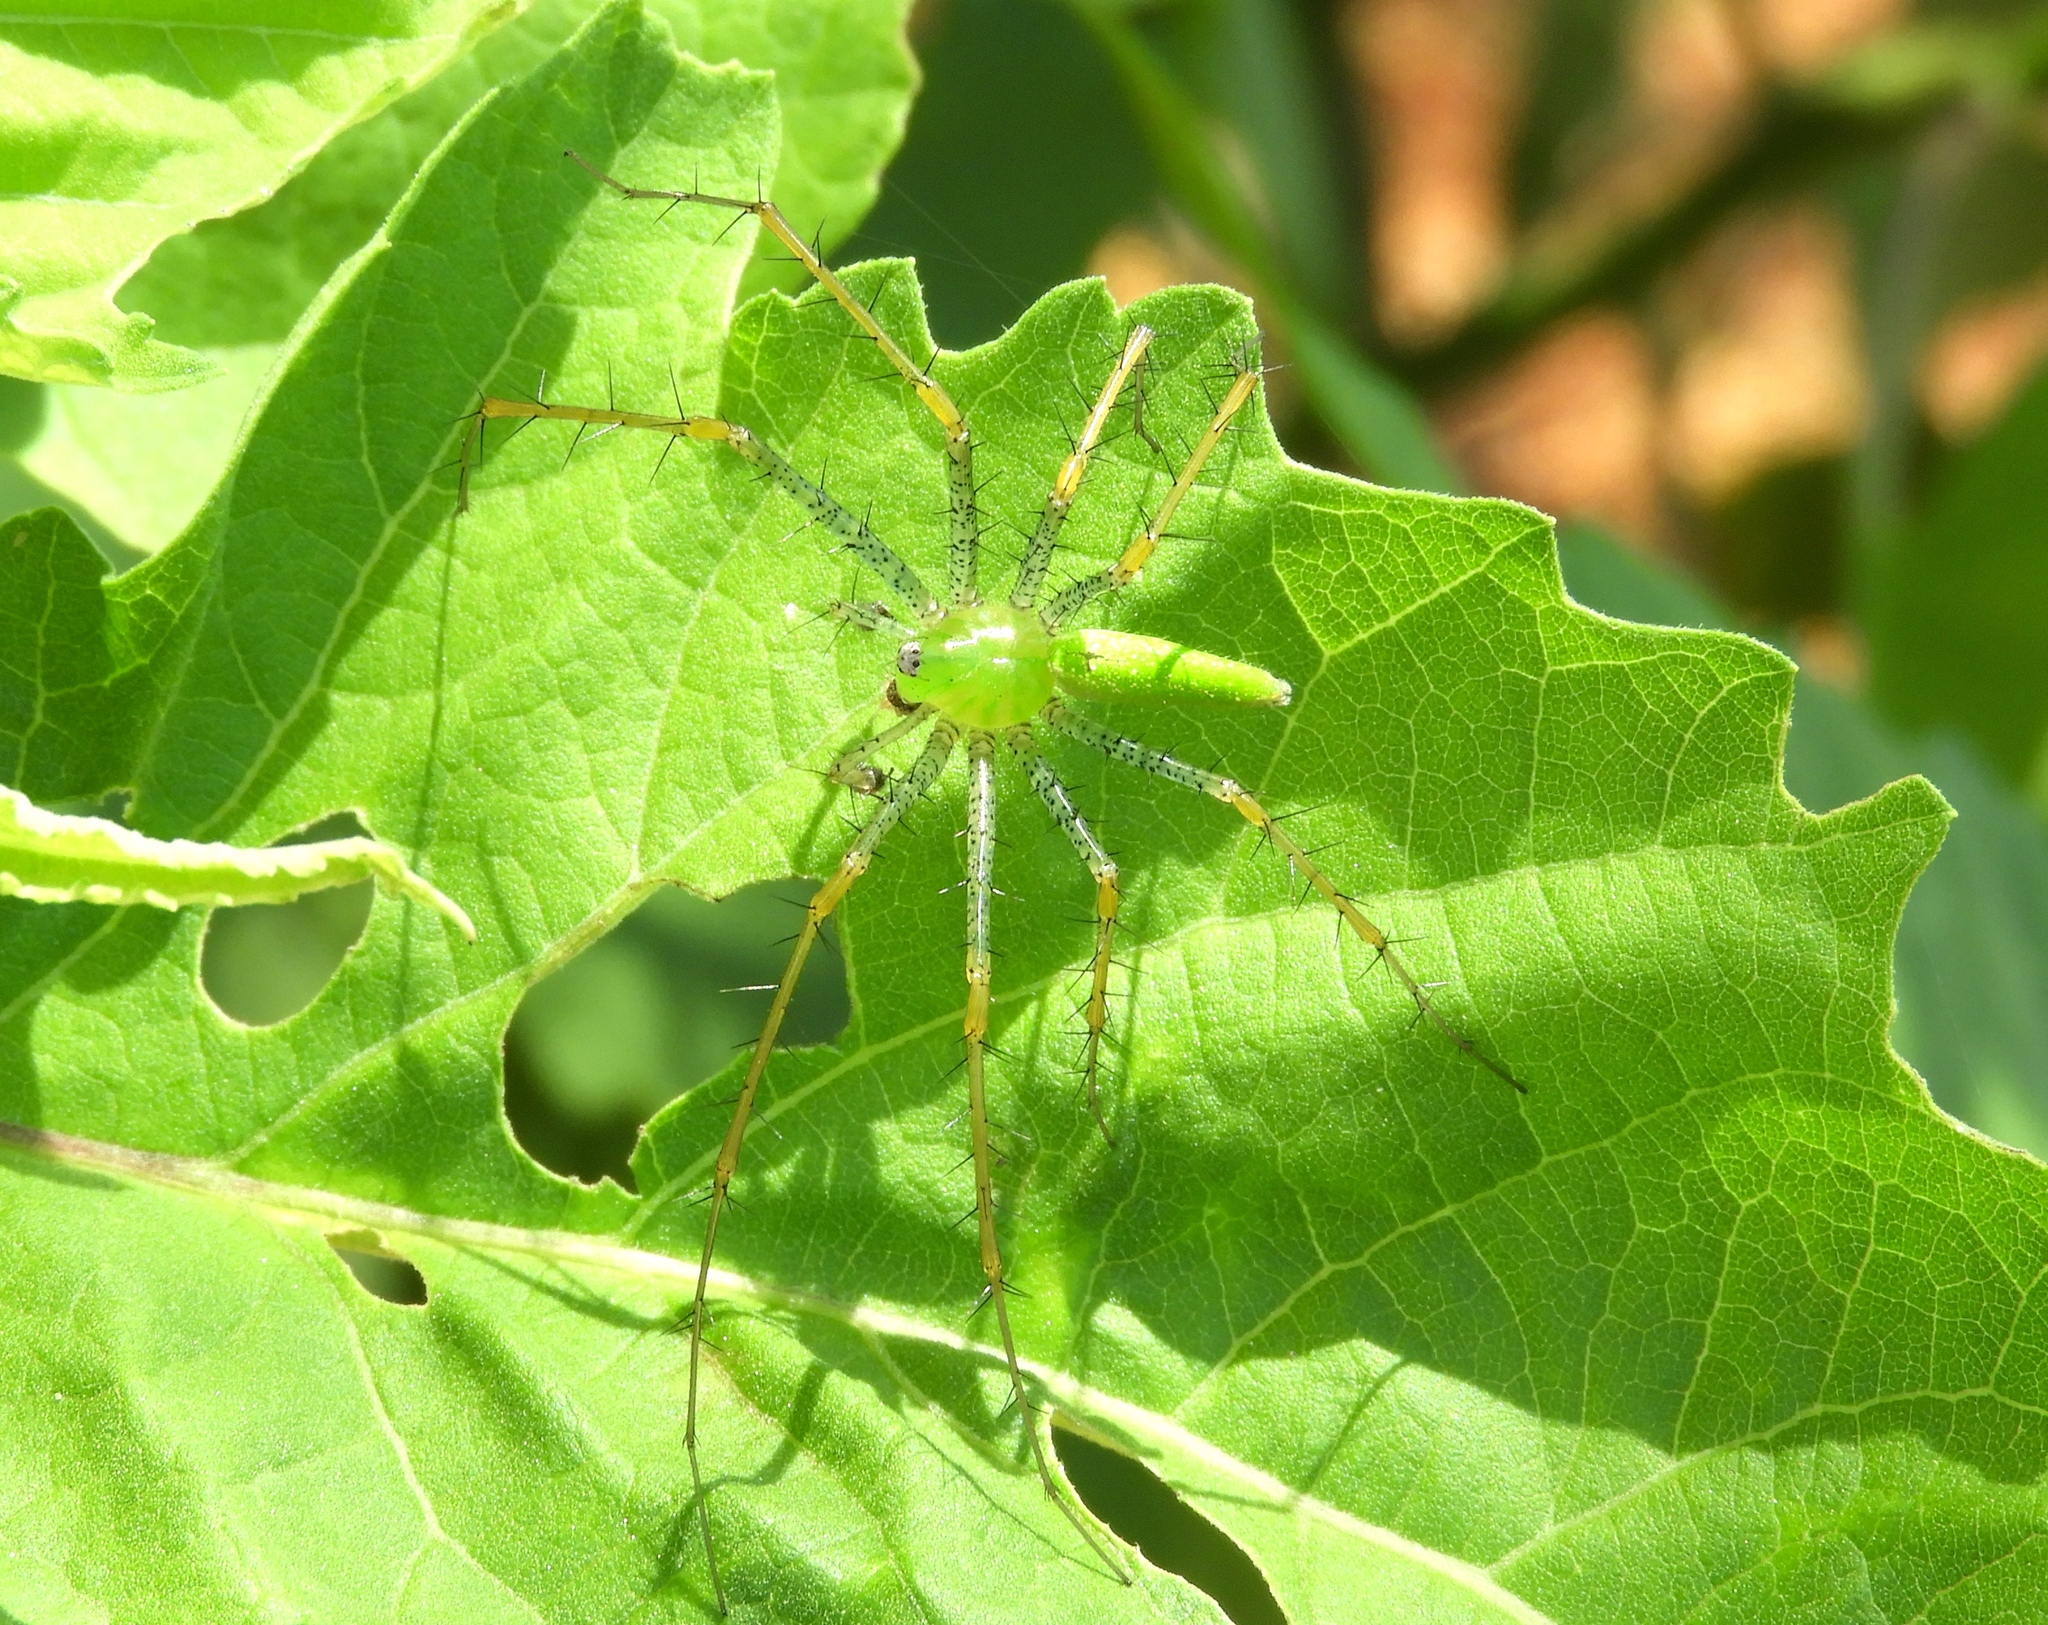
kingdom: Animalia
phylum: Arthropoda
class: Arachnida
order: Araneae
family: Oxyopidae
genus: Peucetia
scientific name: Peucetia longipalpis
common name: Lynx spiders
